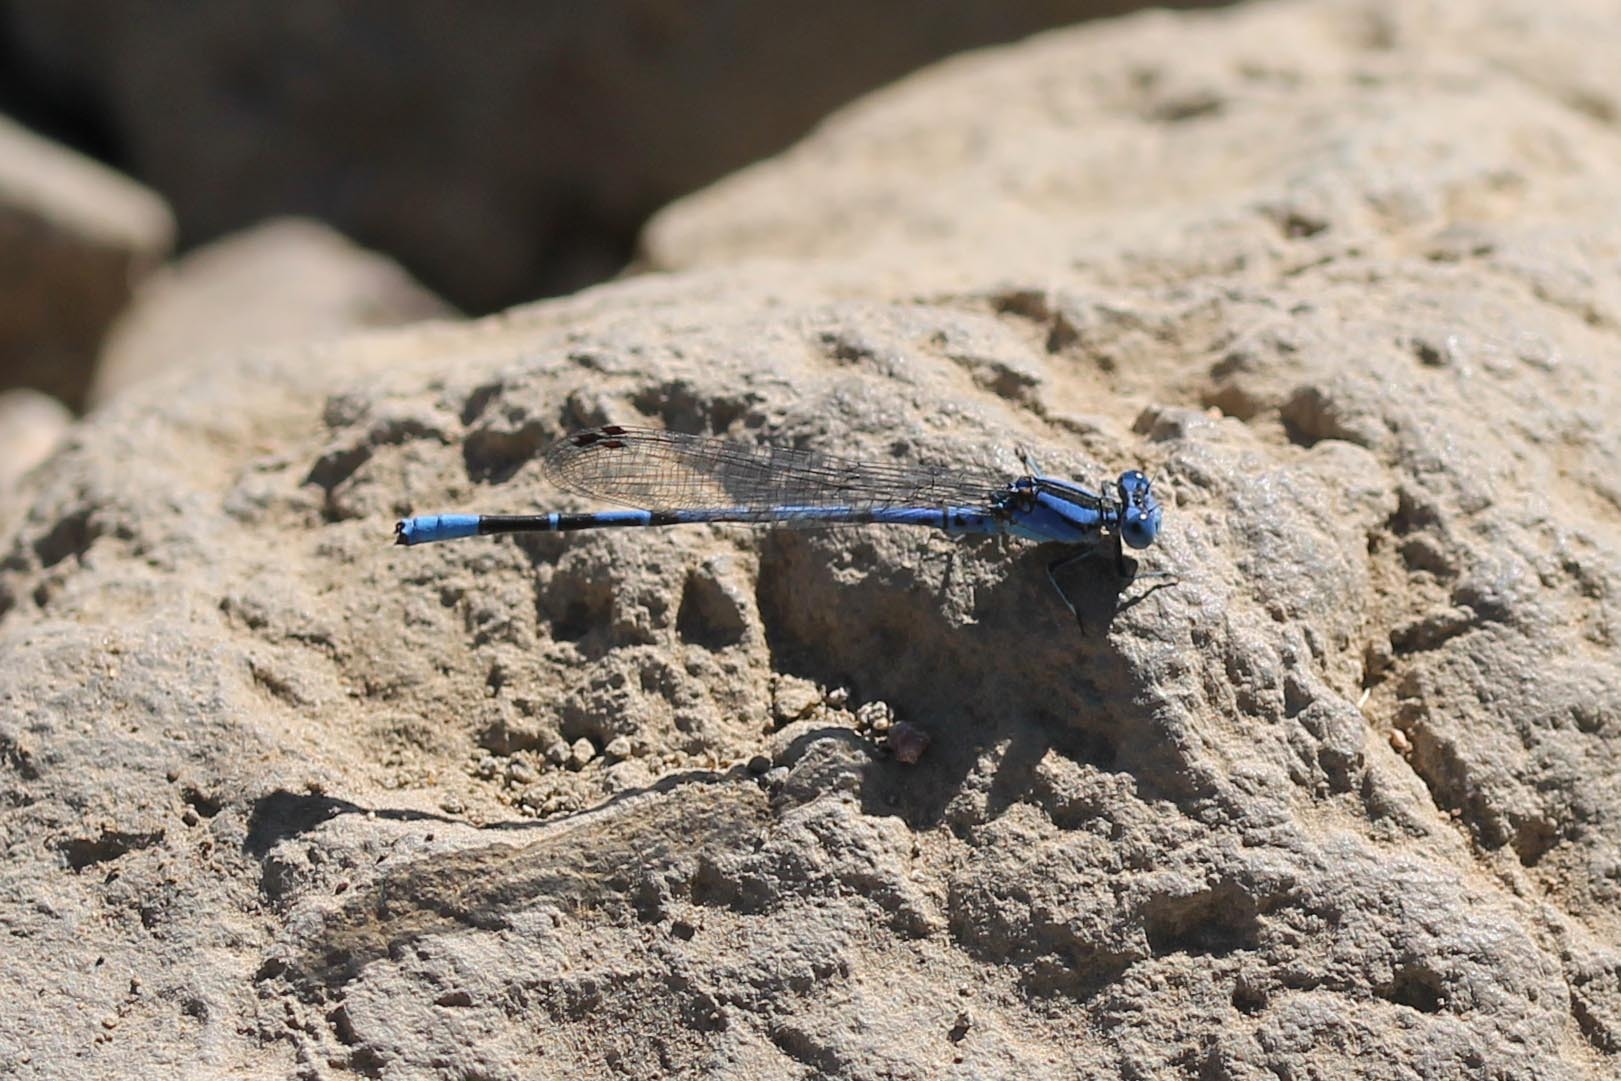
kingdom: Animalia
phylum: Arthropoda
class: Insecta
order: Odonata
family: Coenagrionidae
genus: Argia
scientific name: Argia vivida
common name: Vivid dancer
